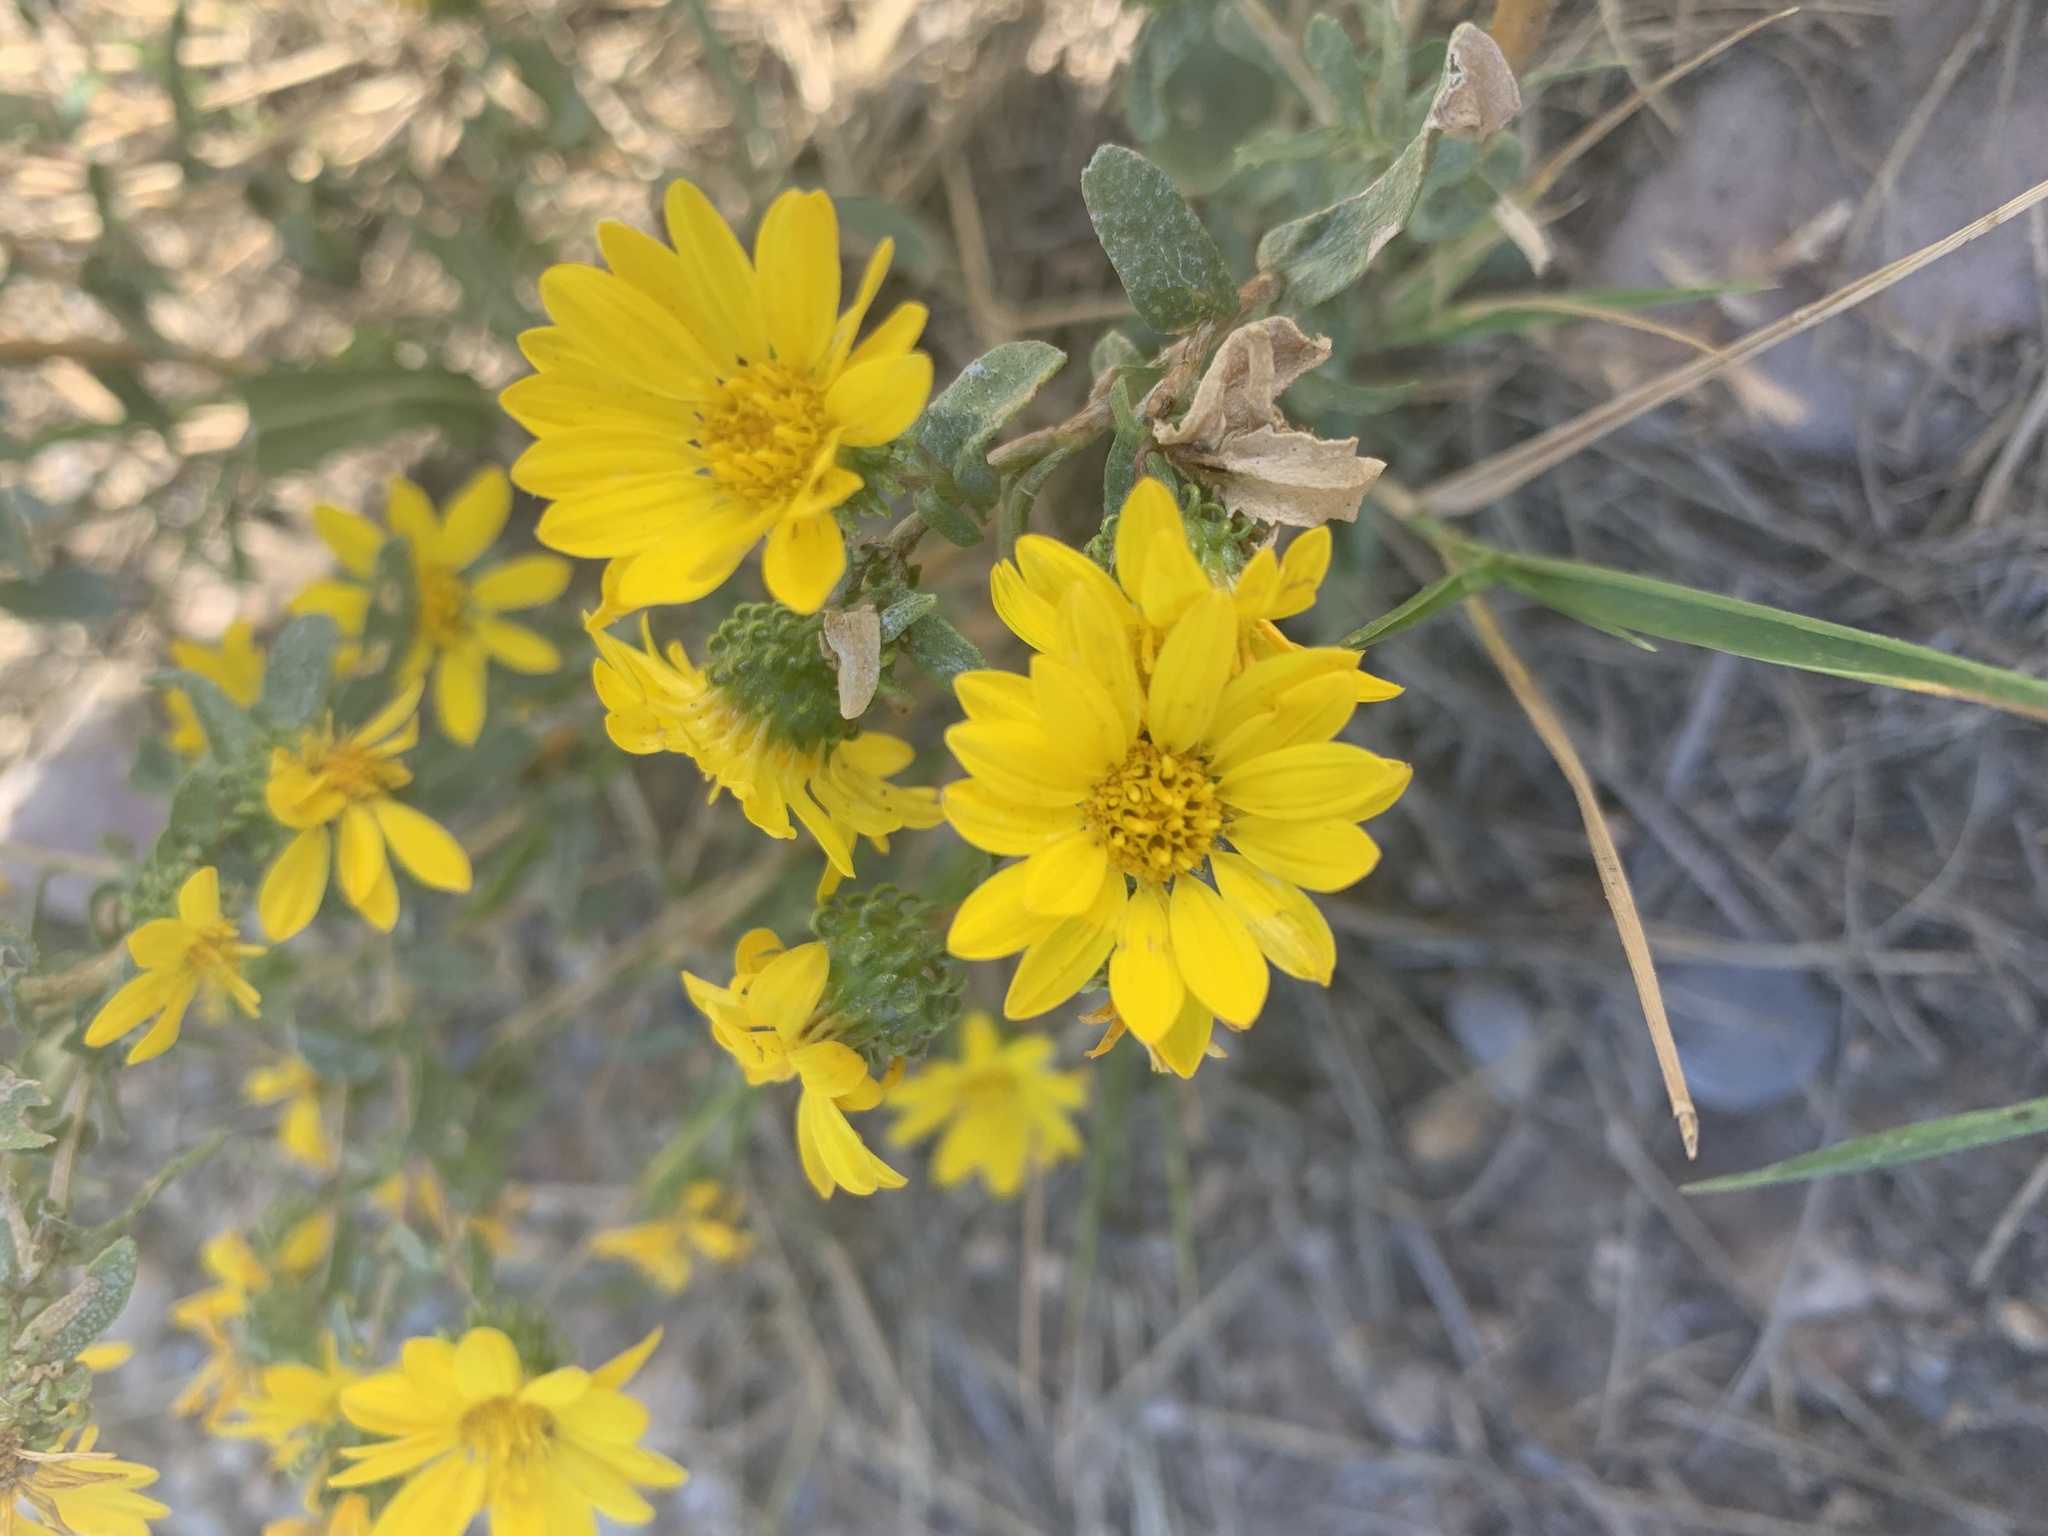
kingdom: Plantae
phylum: Tracheophyta
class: Magnoliopsida
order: Asterales
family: Asteraceae
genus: Grindelia
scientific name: Grindelia squarrosa
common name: Curly-cup gumweed
